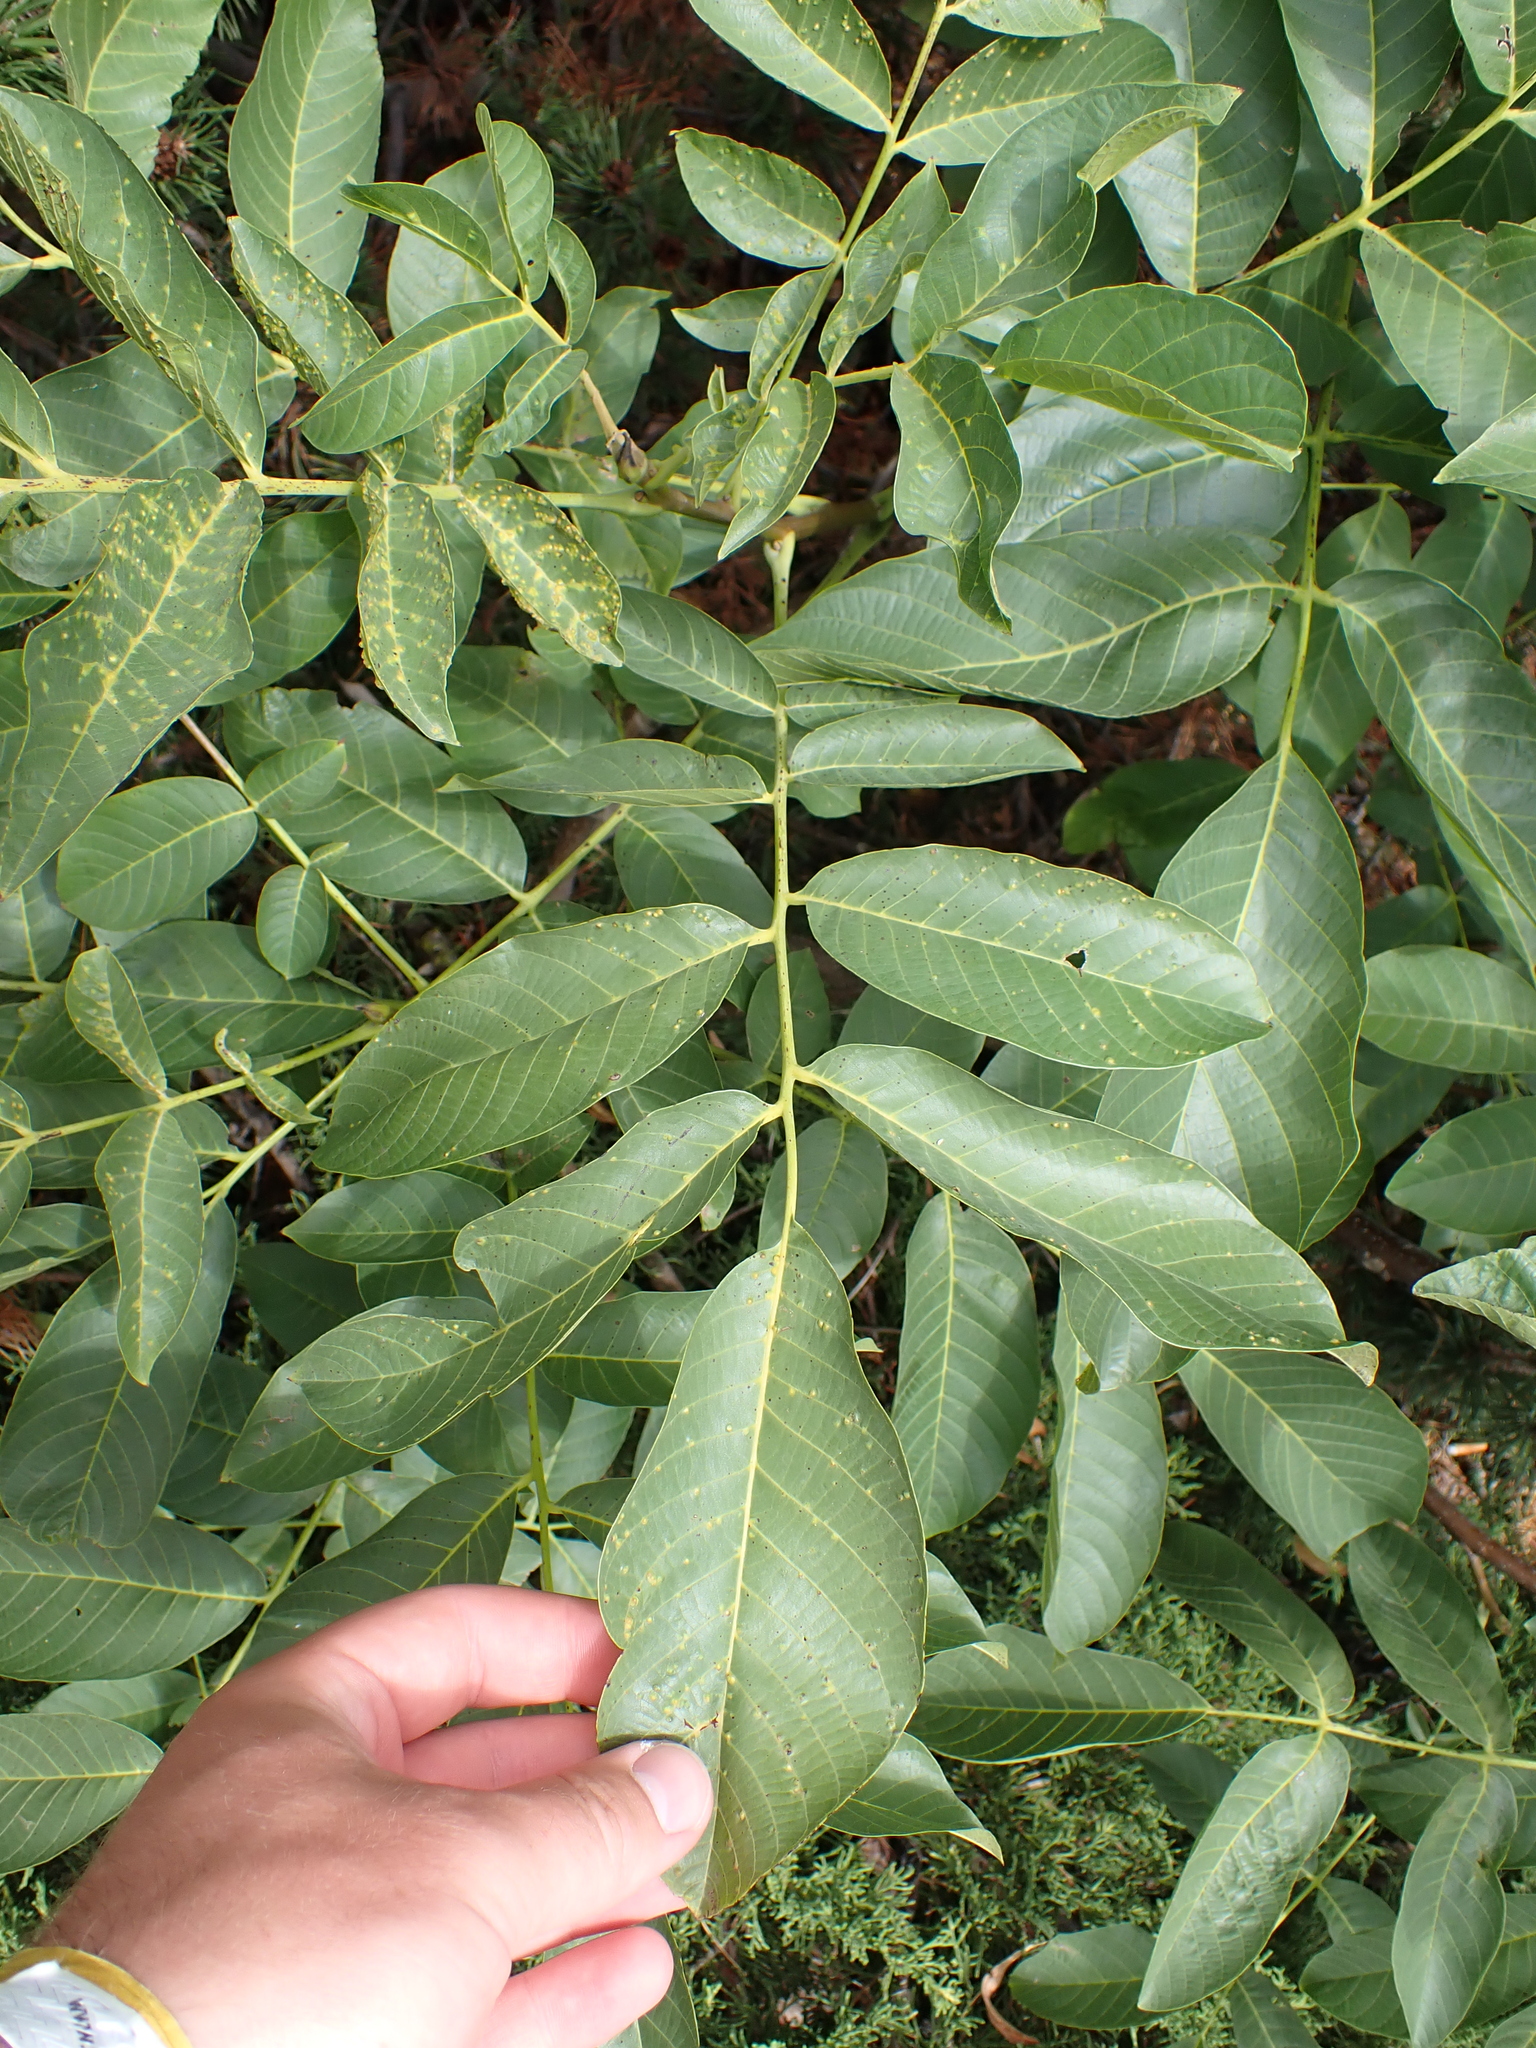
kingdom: Plantae
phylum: Tracheophyta
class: Magnoliopsida
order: Fagales
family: Juglandaceae
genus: Juglans
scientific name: Juglans regia
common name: Walnut
